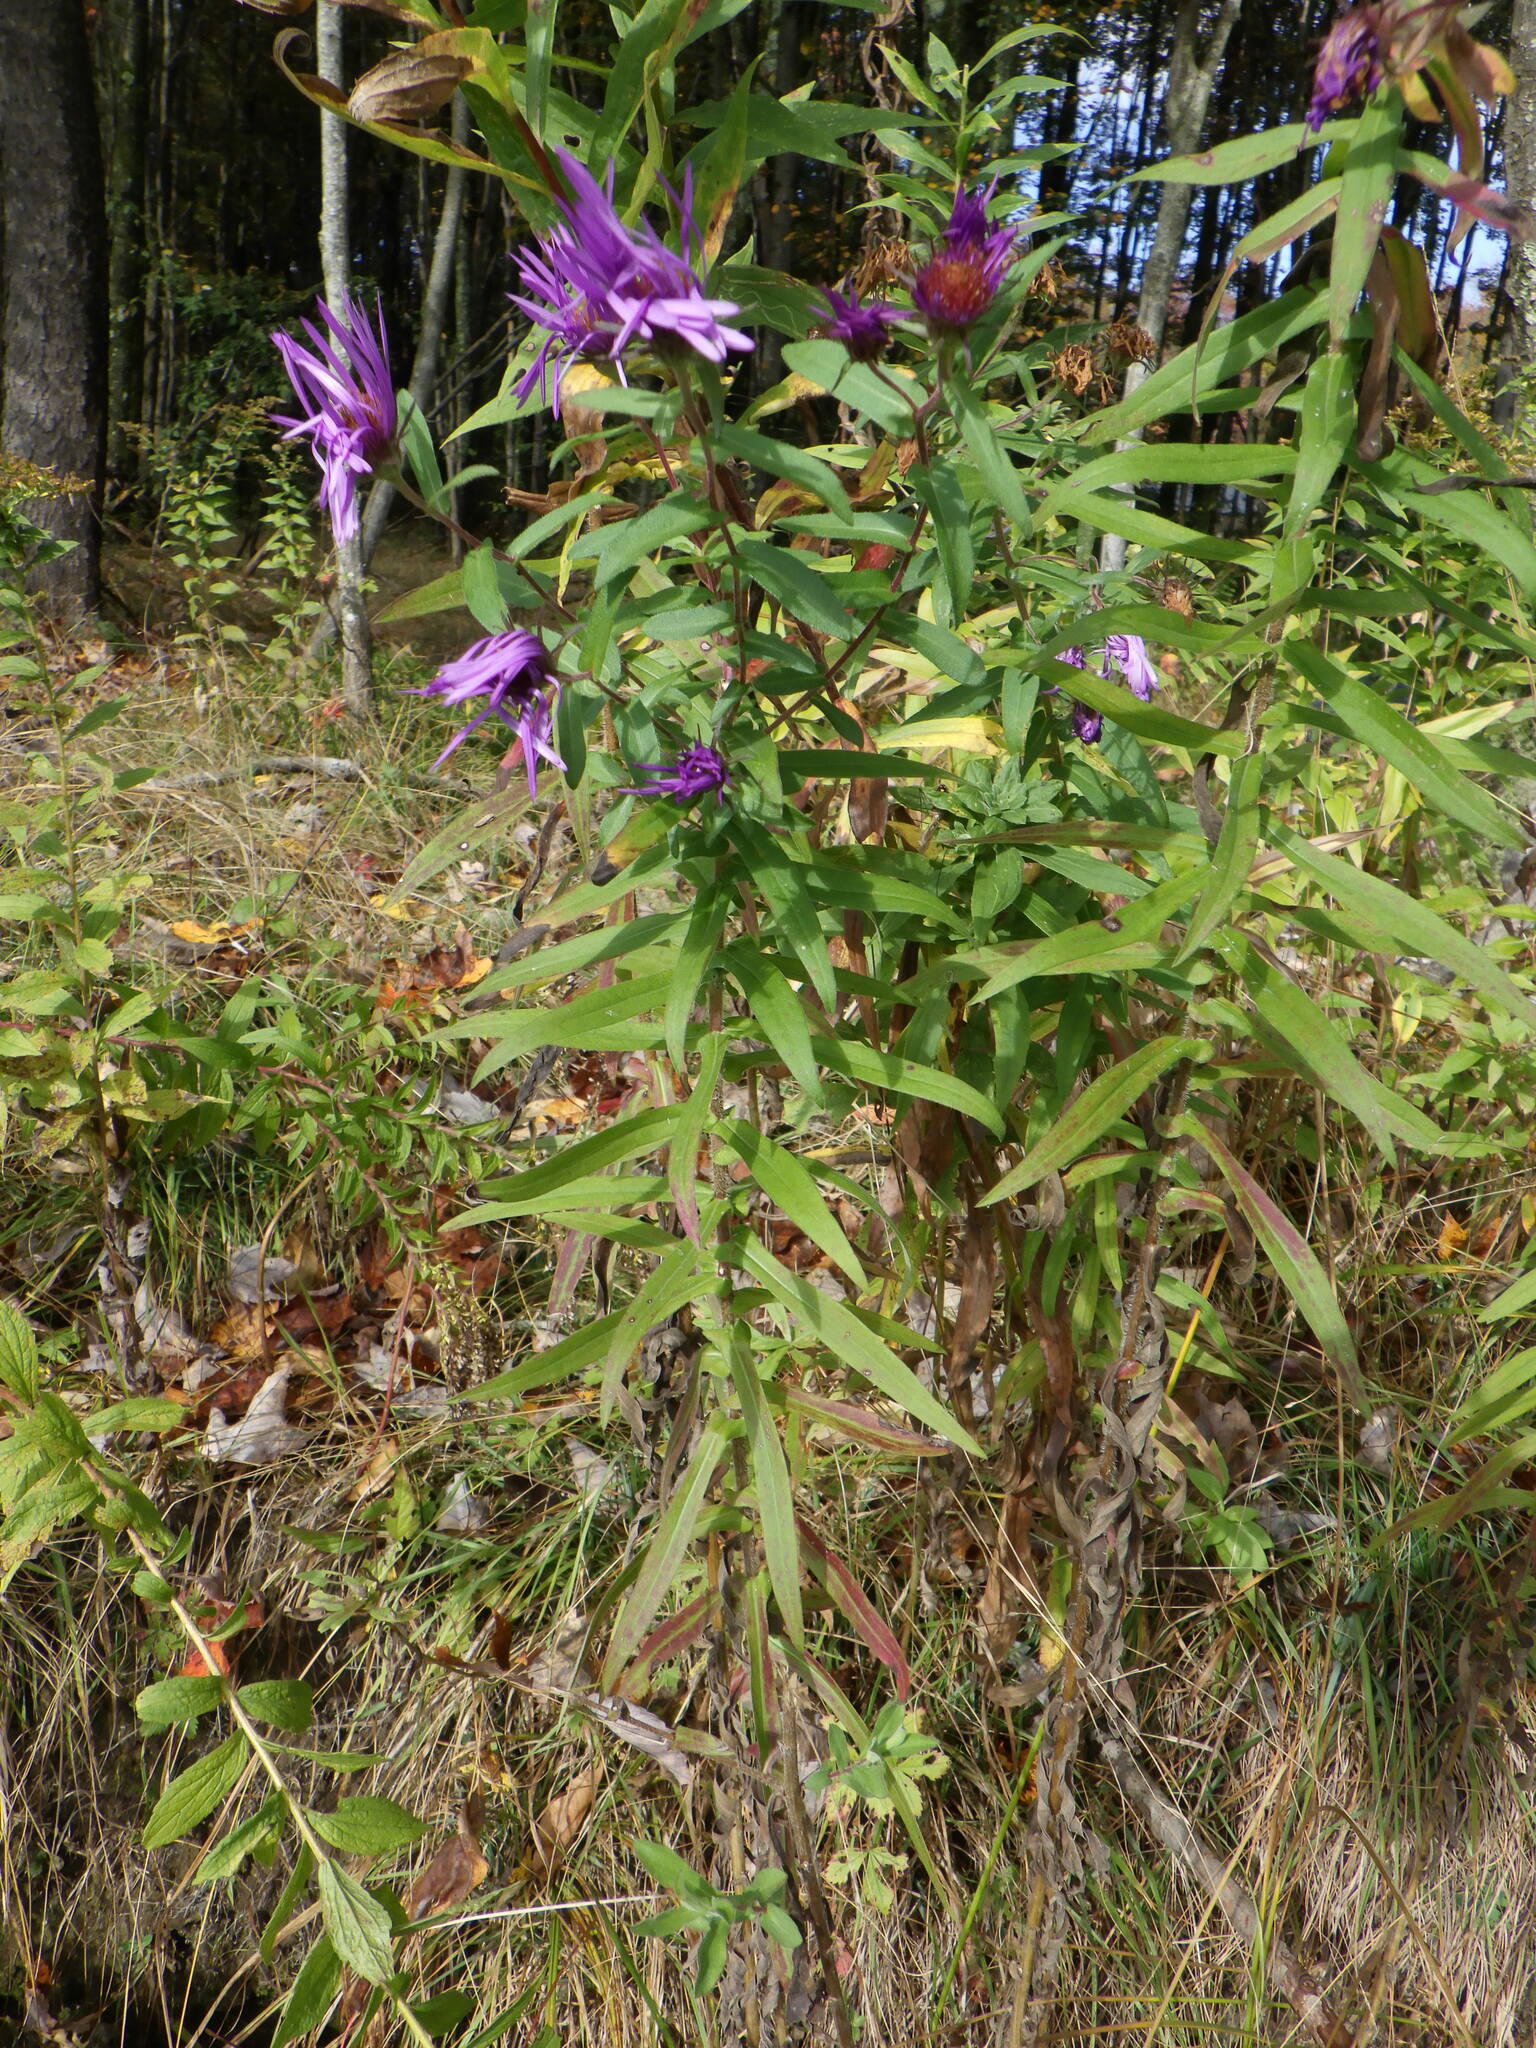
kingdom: Plantae
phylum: Tracheophyta
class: Magnoliopsida
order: Asterales
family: Asteraceae
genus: Symphyotrichum
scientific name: Symphyotrichum novae-angliae
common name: Michaelmas daisy
